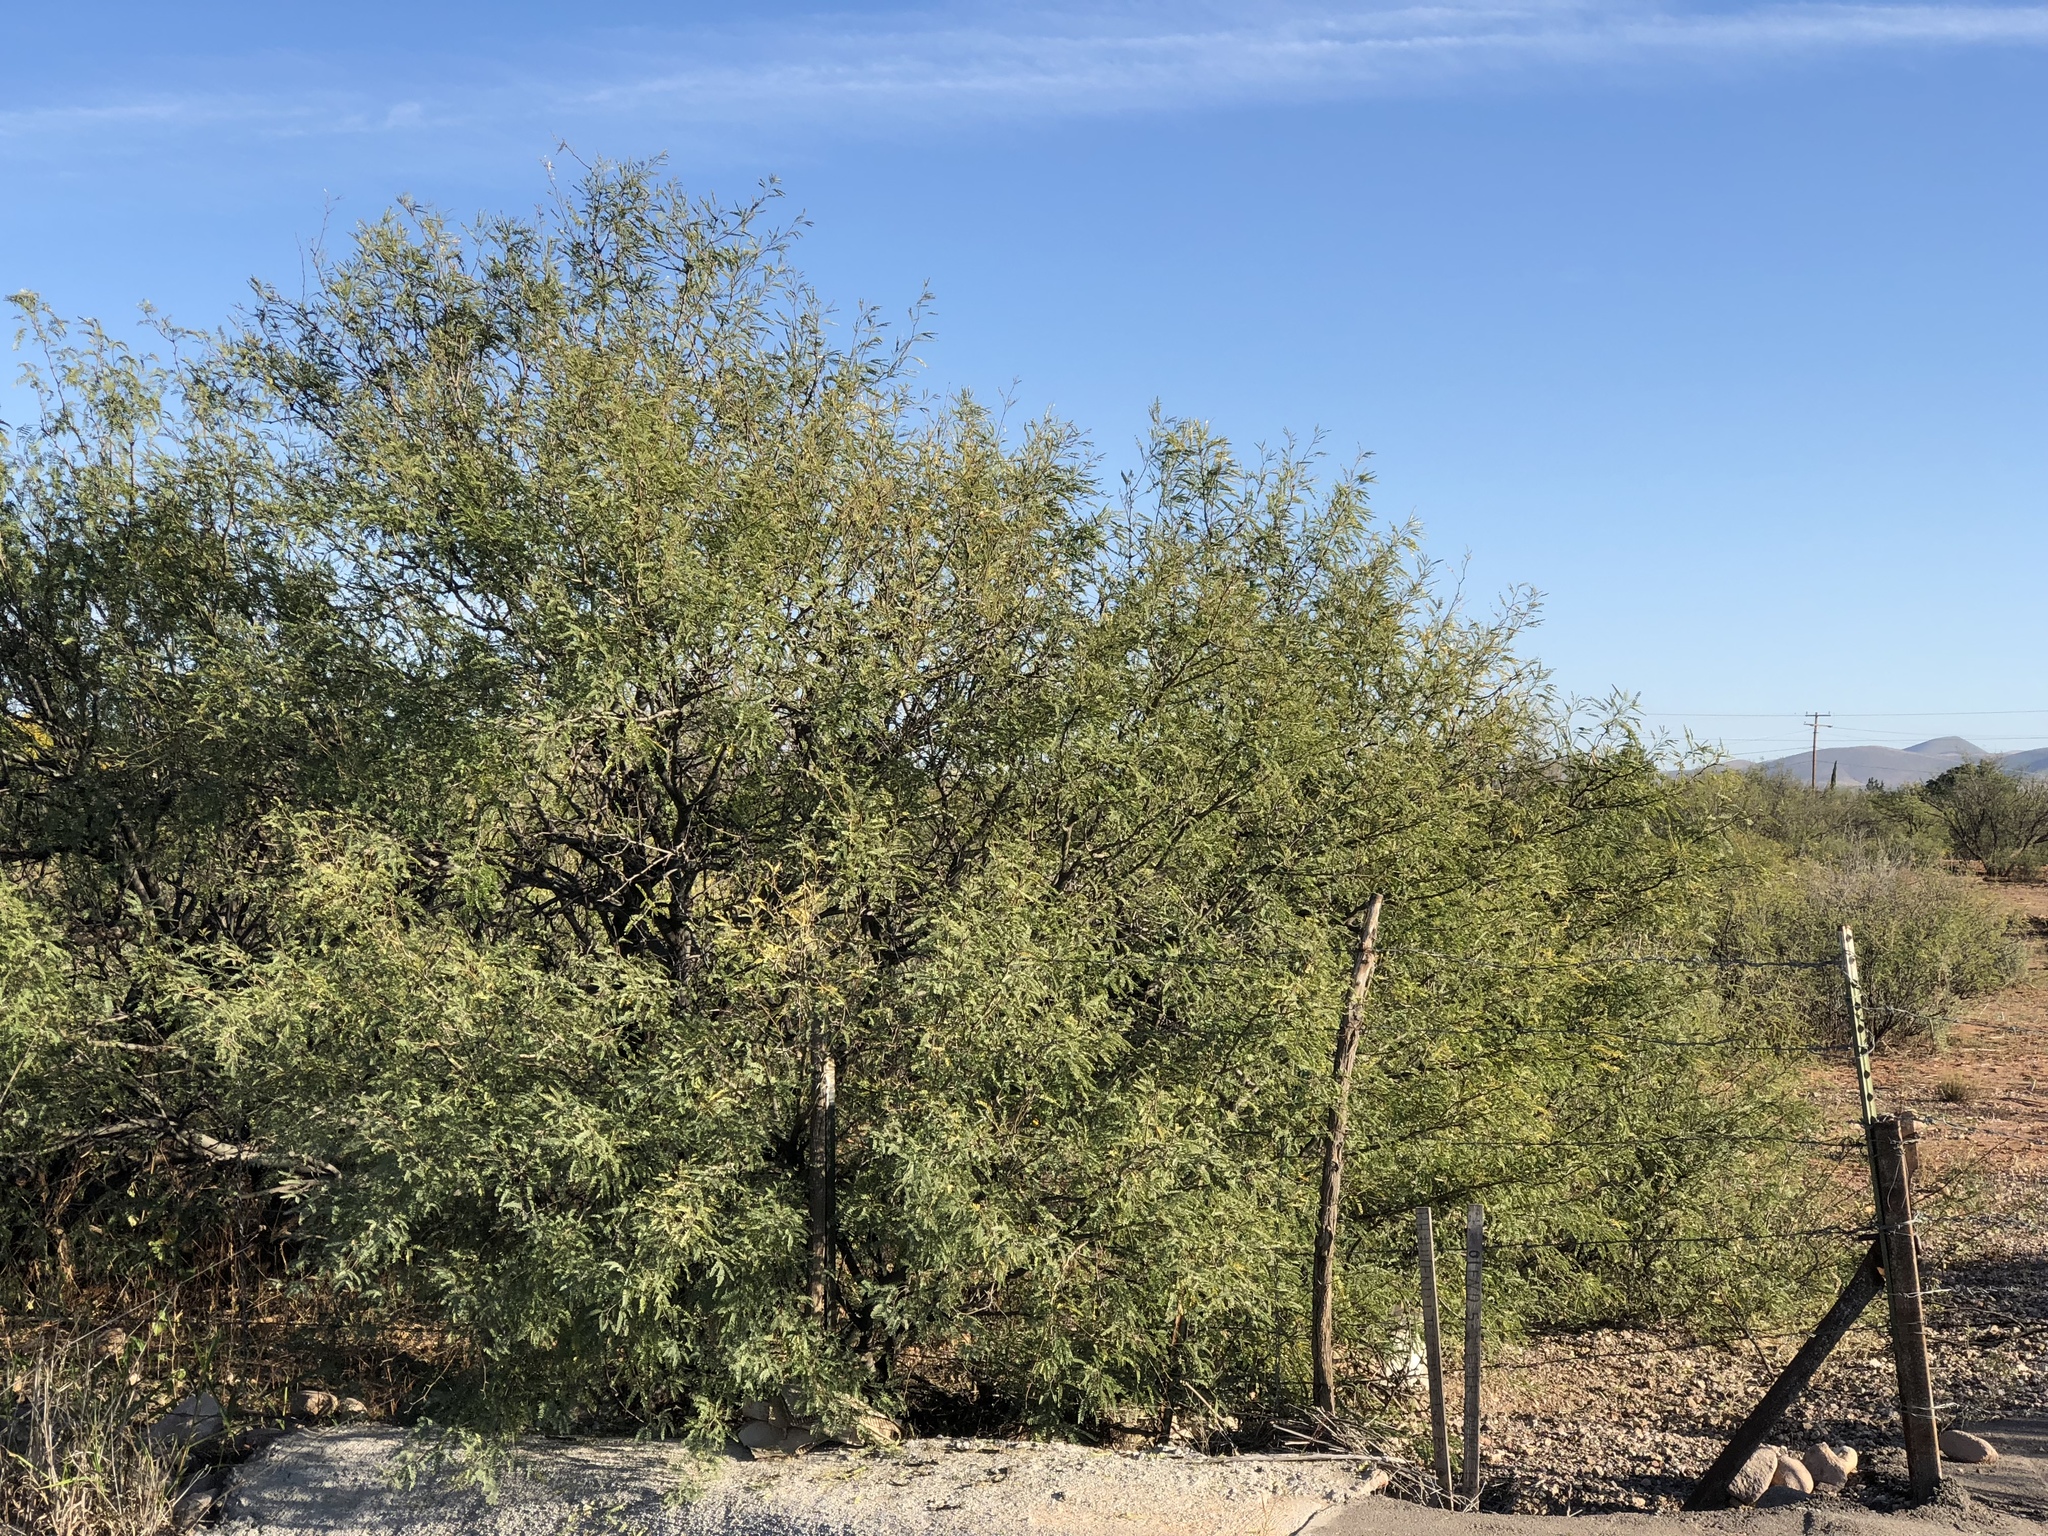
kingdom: Plantae
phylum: Tracheophyta
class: Magnoliopsida
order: Fabales
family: Fabaceae
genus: Prosopis
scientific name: Prosopis velutina
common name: Velvet mesquite
